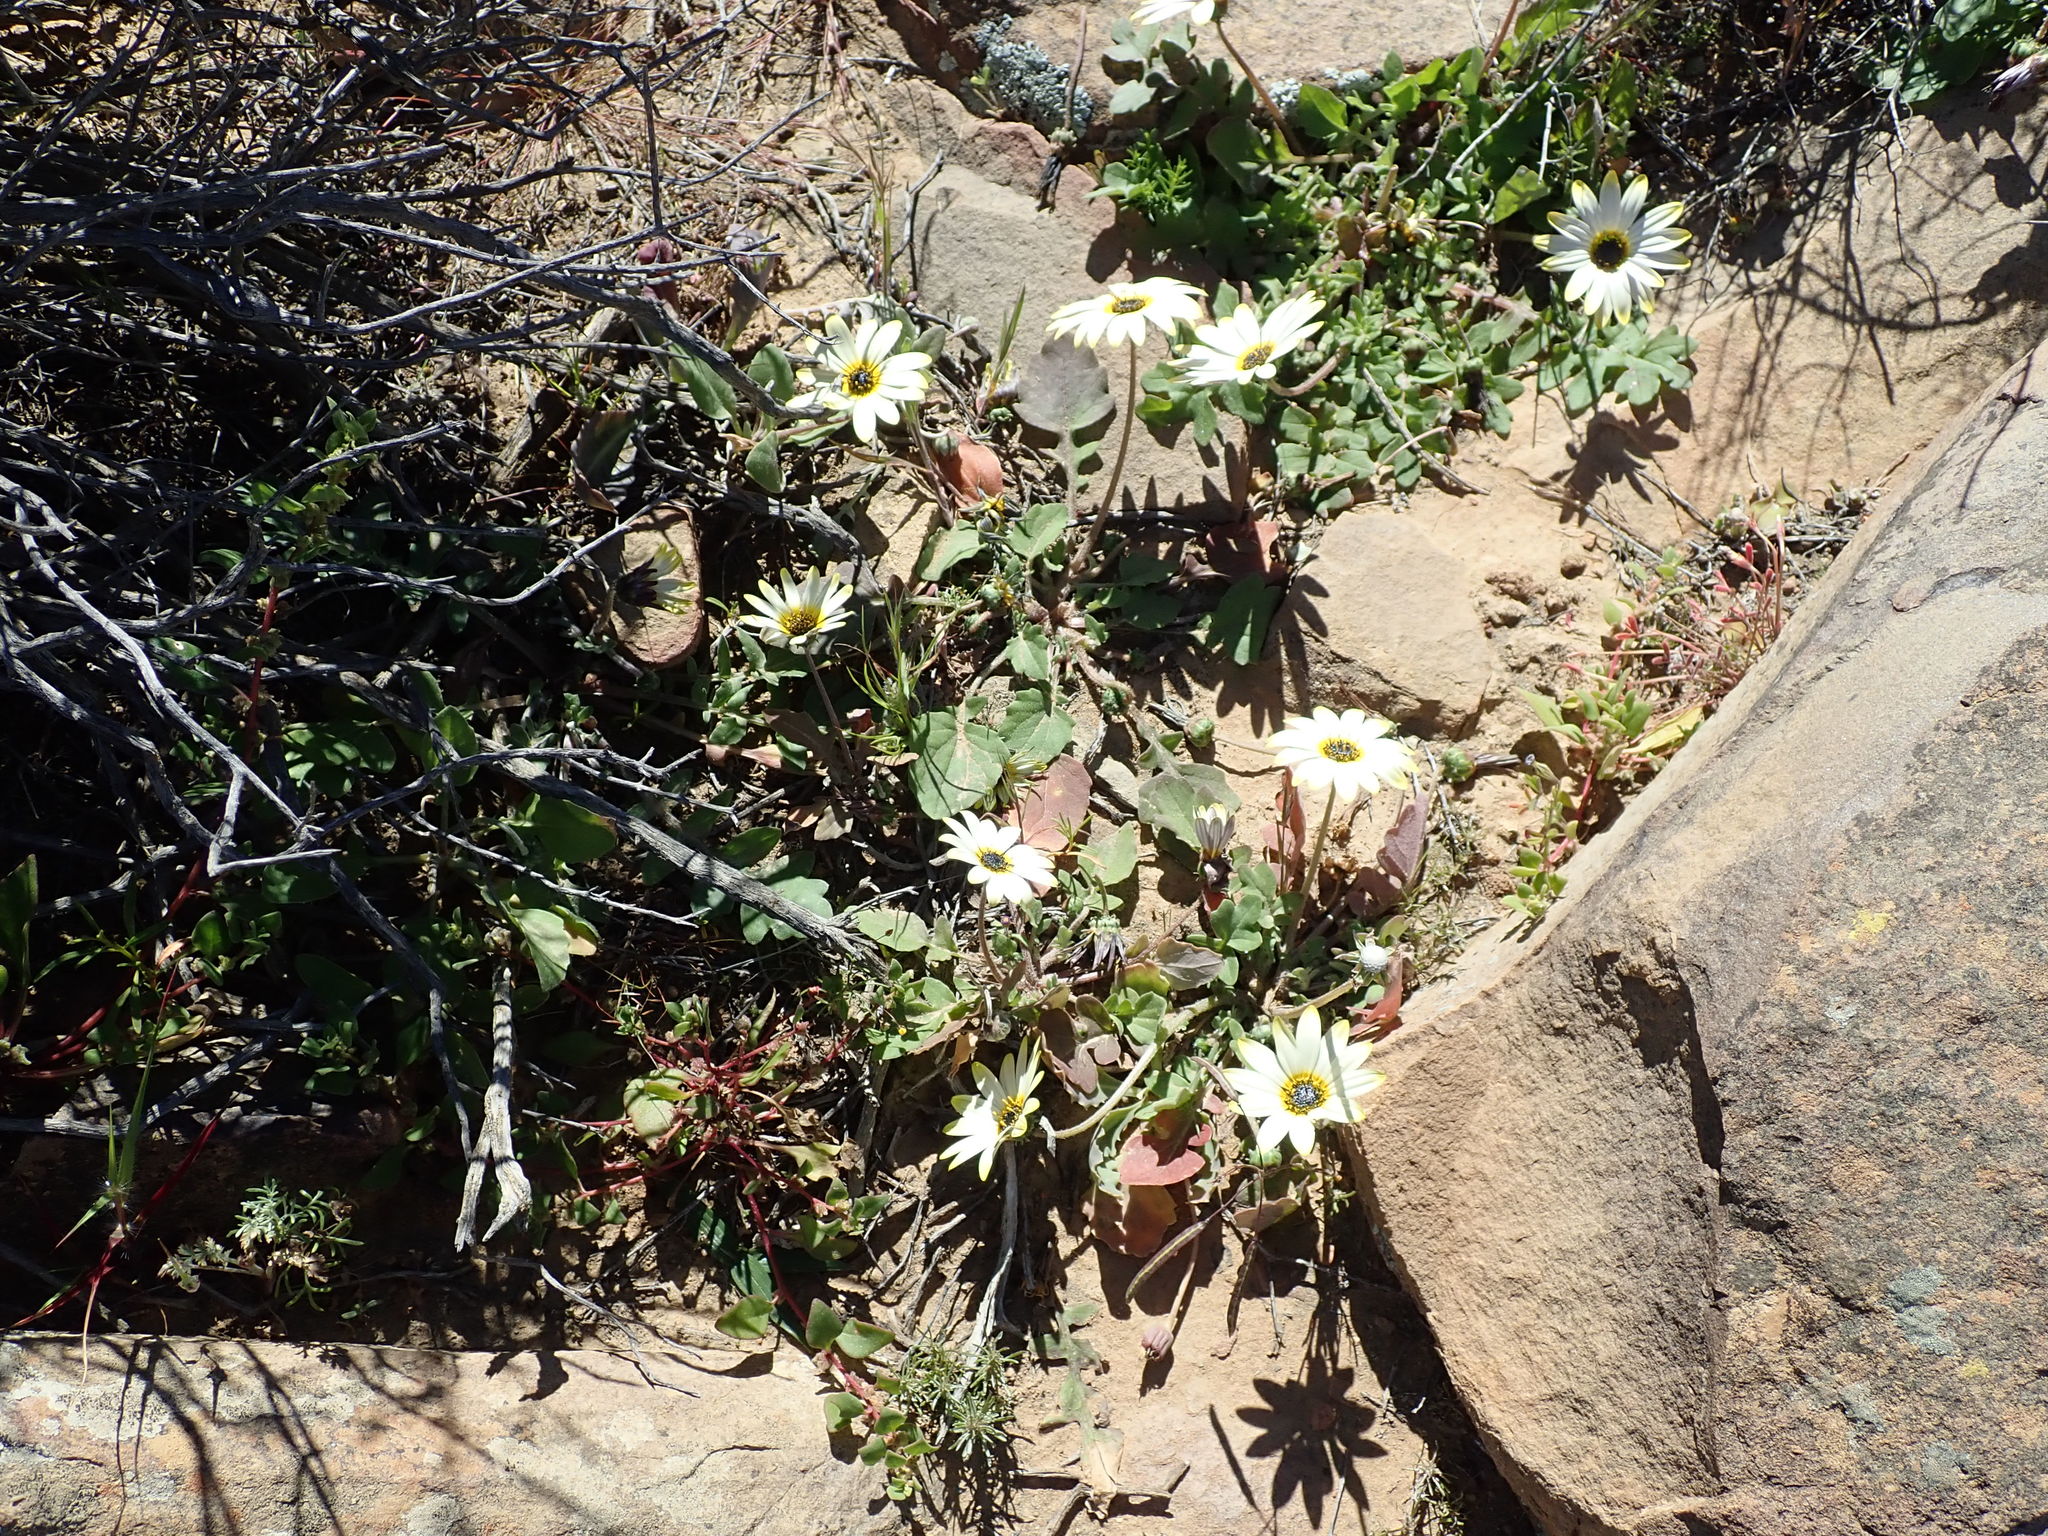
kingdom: Plantae
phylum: Tracheophyta
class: Magnoliopsida
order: Asterales
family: Asteraceae
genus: Arctotheca
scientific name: Arctotheca calendula
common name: Capeweed
